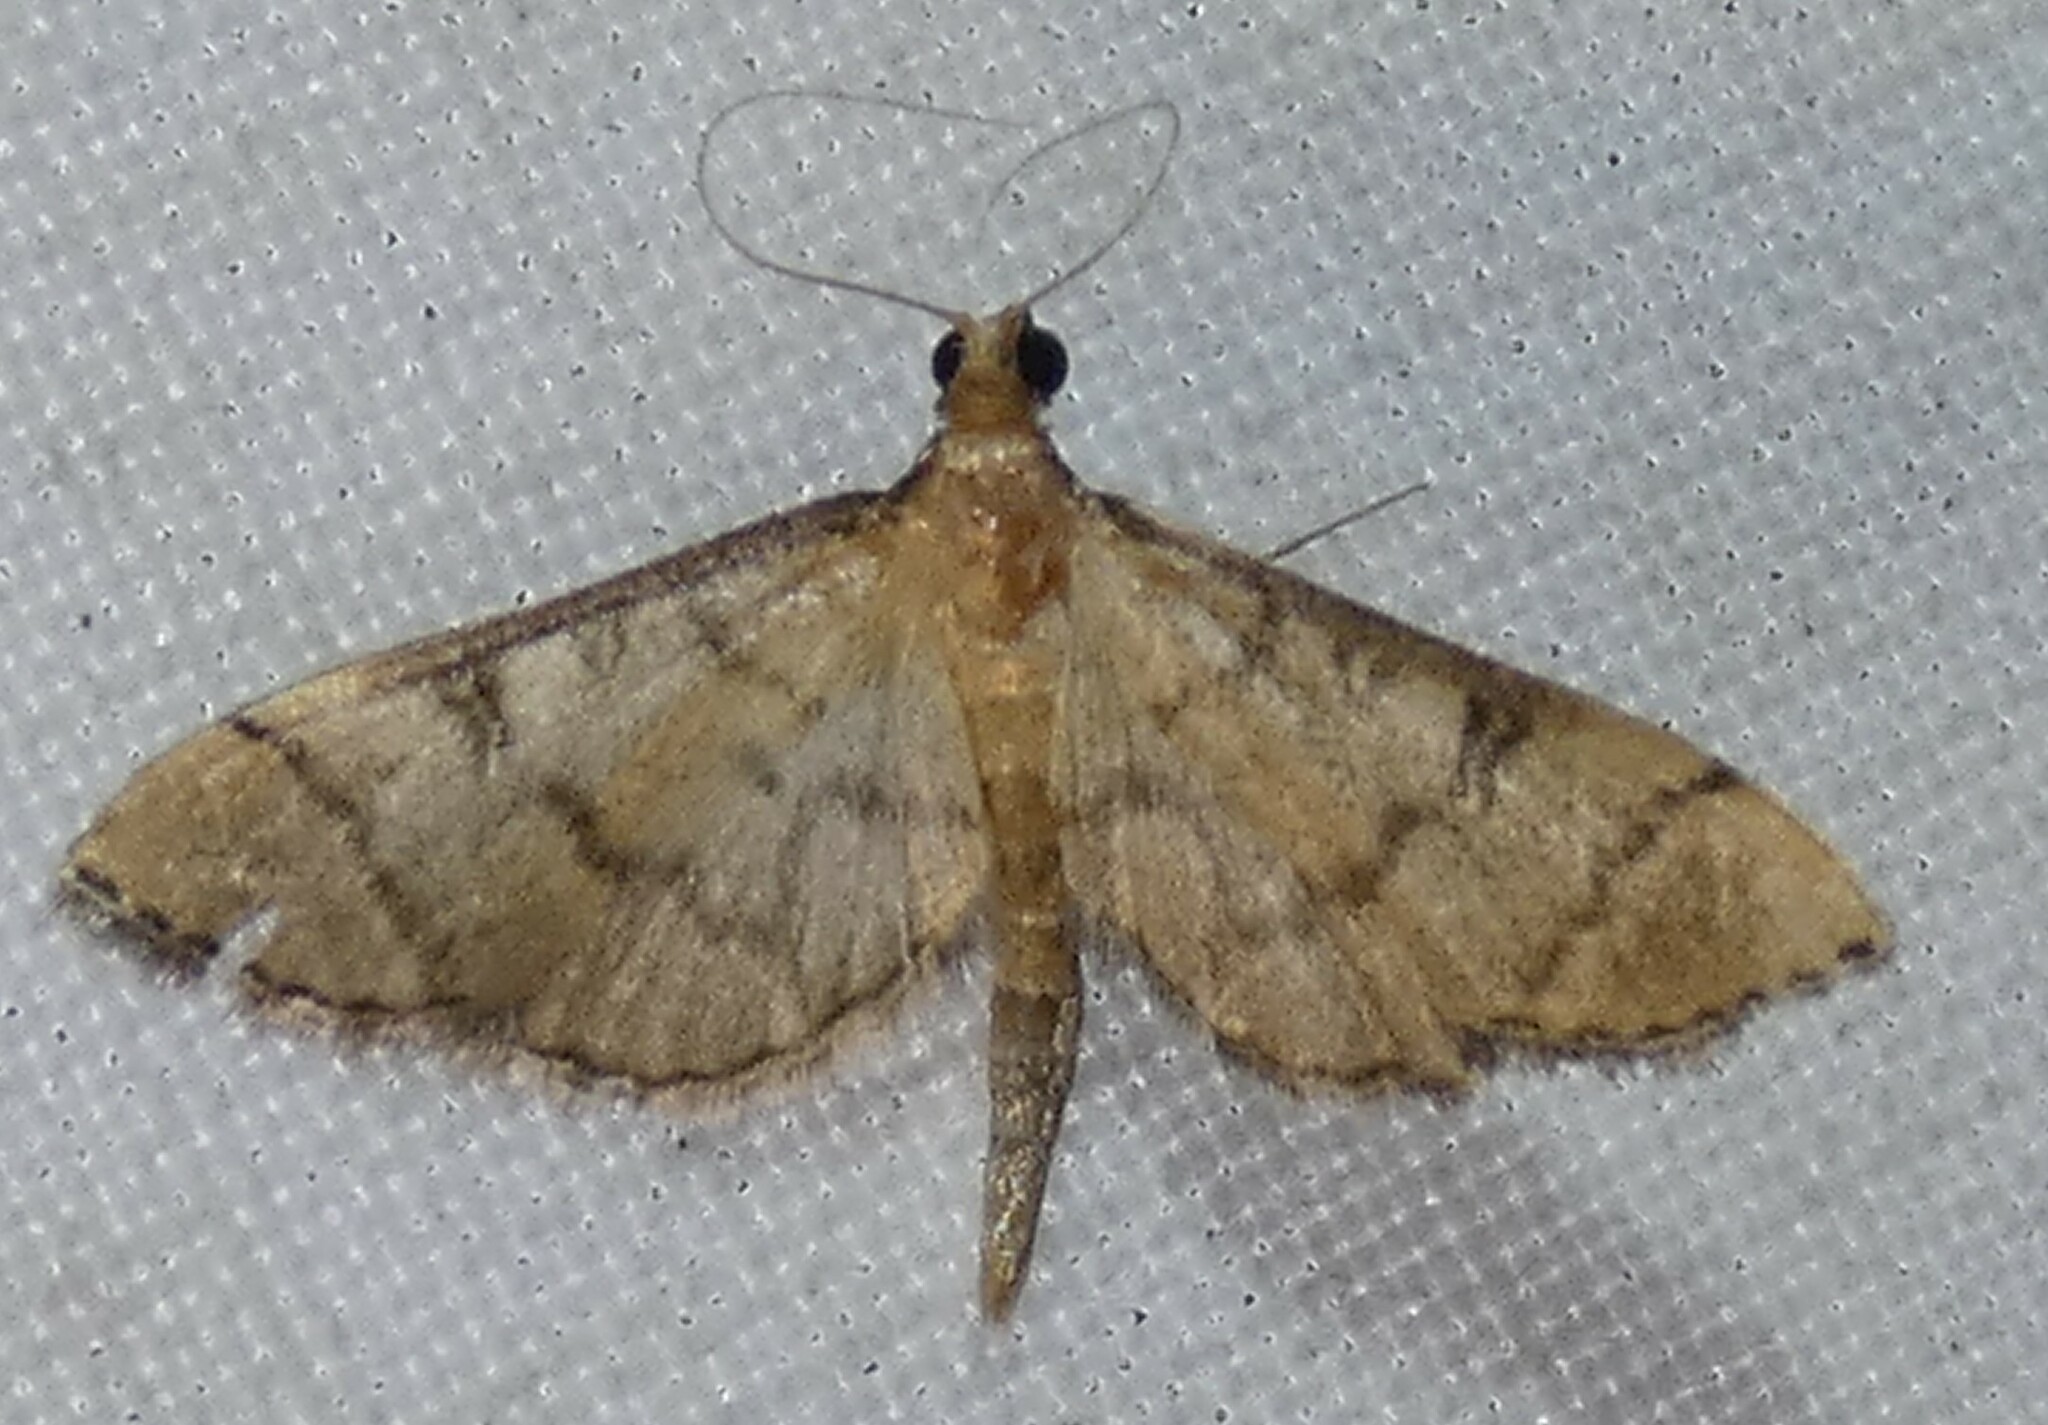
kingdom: Animalia
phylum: Arthropoda
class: Insecta
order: Lepidoptera
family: Crambidae
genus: Lamprosema
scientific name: Lamprosema Blepharomastix ranalis
